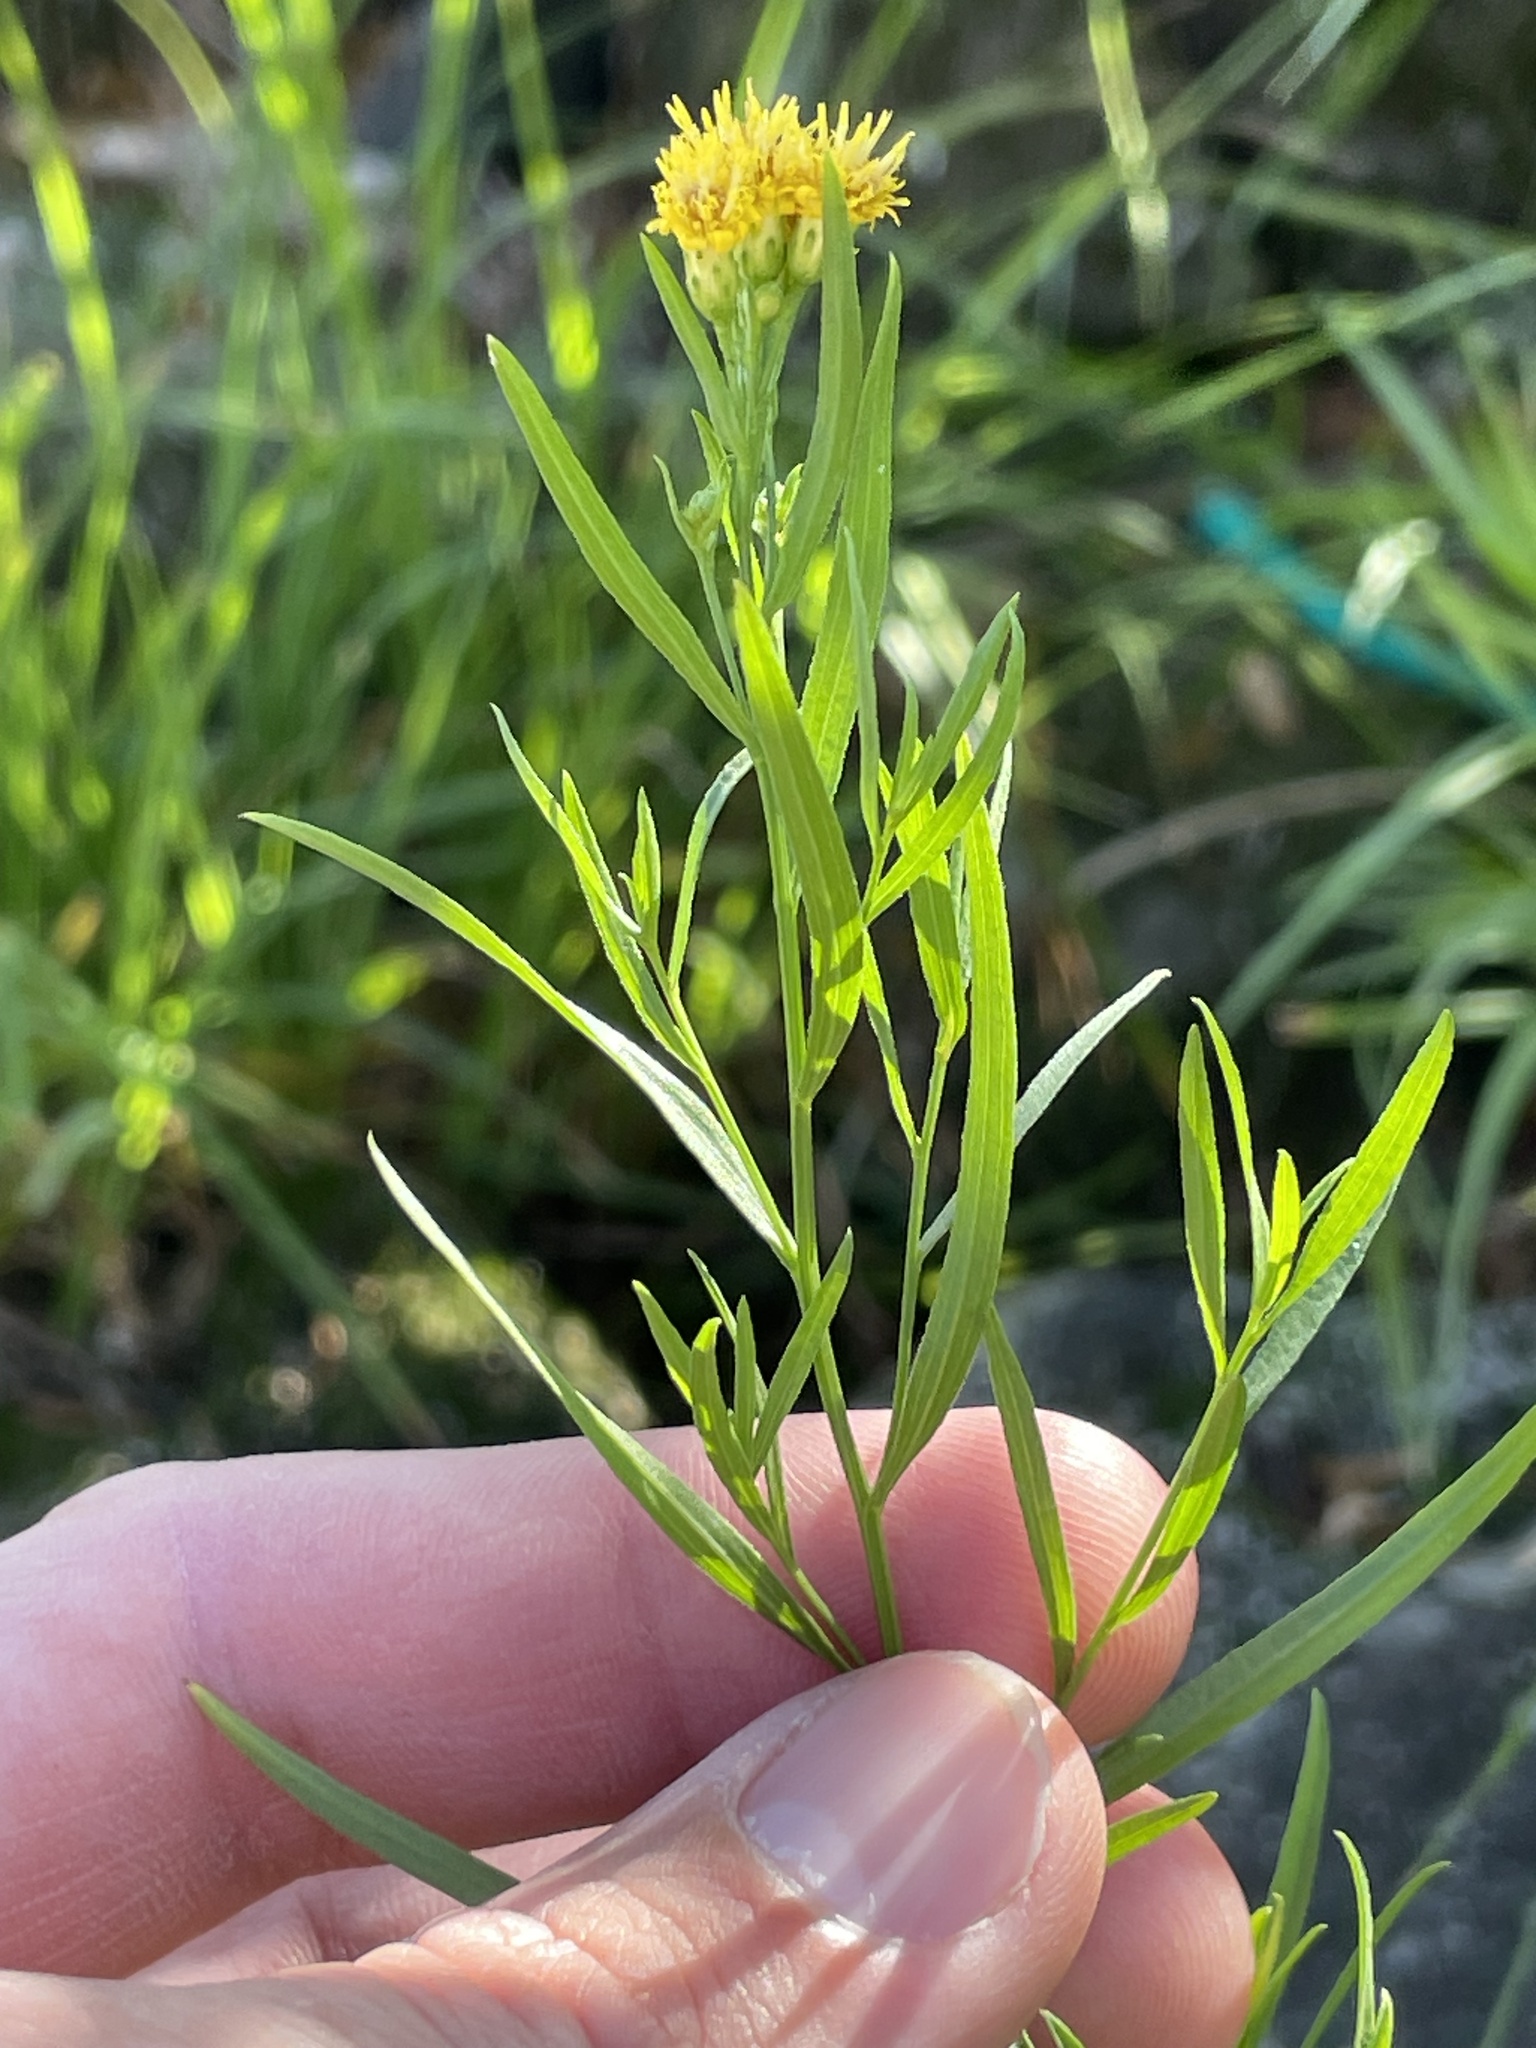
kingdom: Plantae
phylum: Tracheophyta
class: Magnoliopsida
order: Asterales
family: Asteraceae
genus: Euthamia
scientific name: Euthamia occidentalis
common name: Western goldentop
